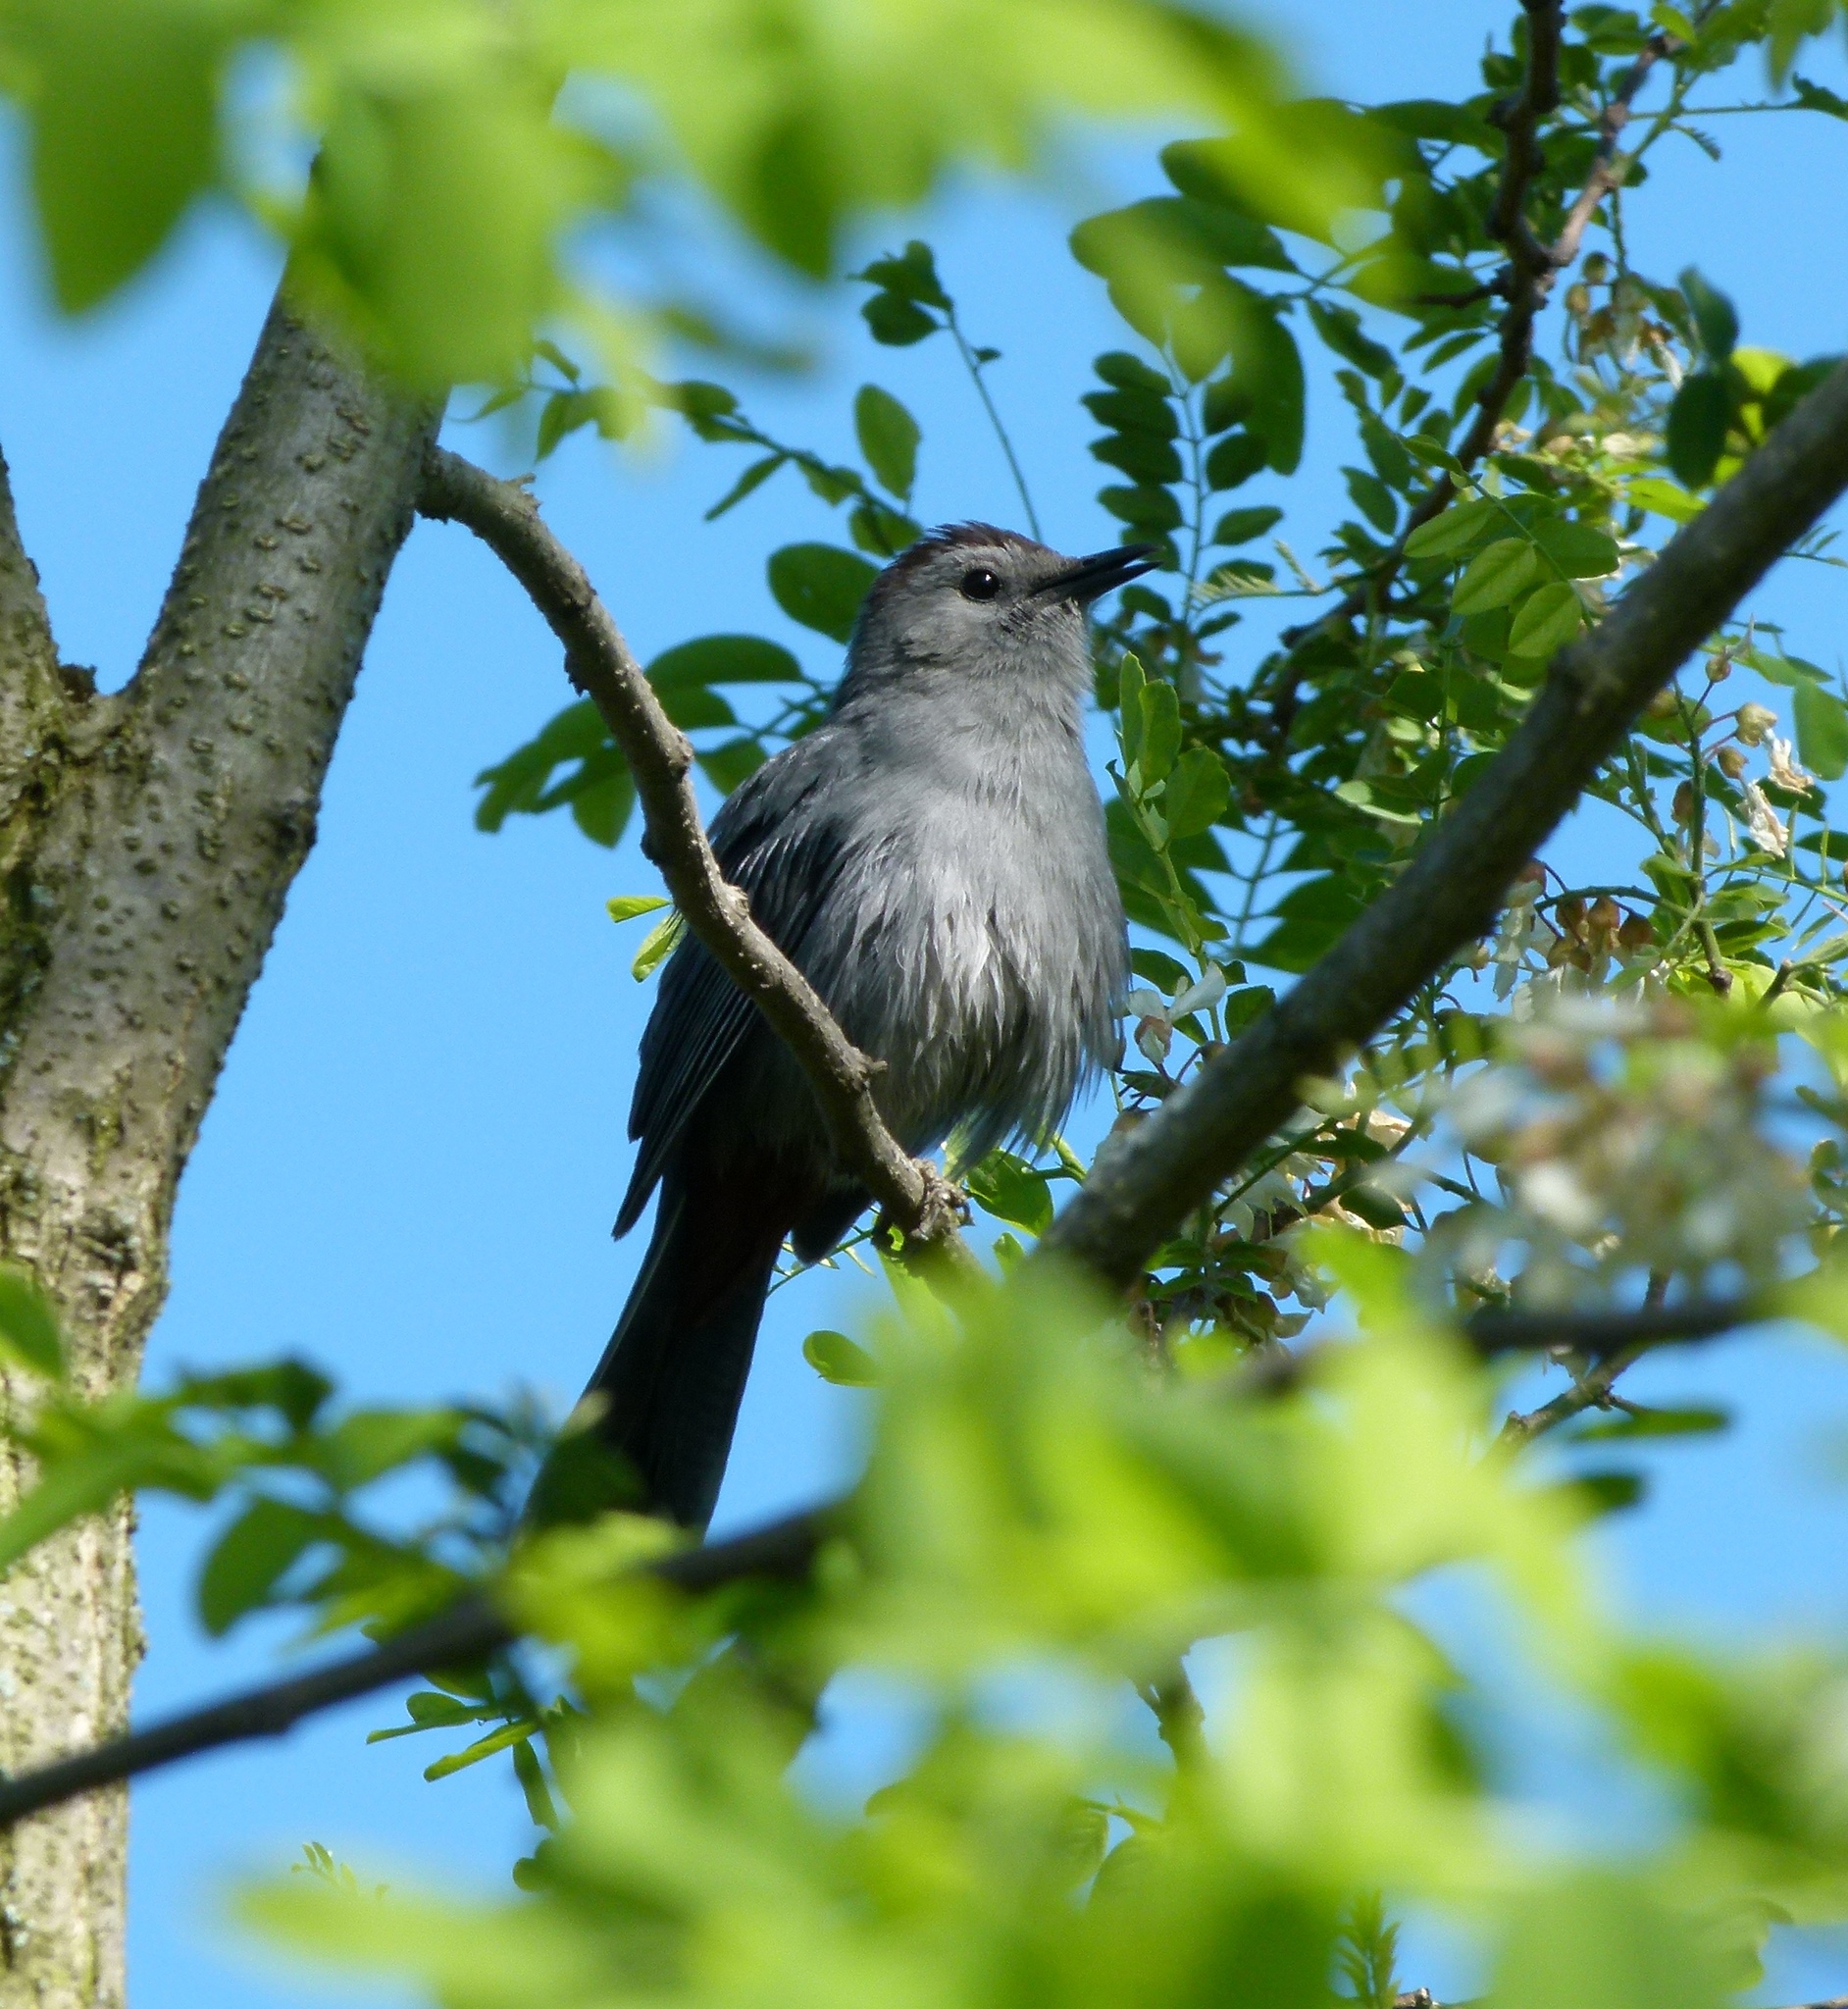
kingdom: Animalia
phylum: Chordata
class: Aves
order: Passeriformes
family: Mimidae
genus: Dumetella
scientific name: Dumetella carolinensis
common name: Gray catbird
